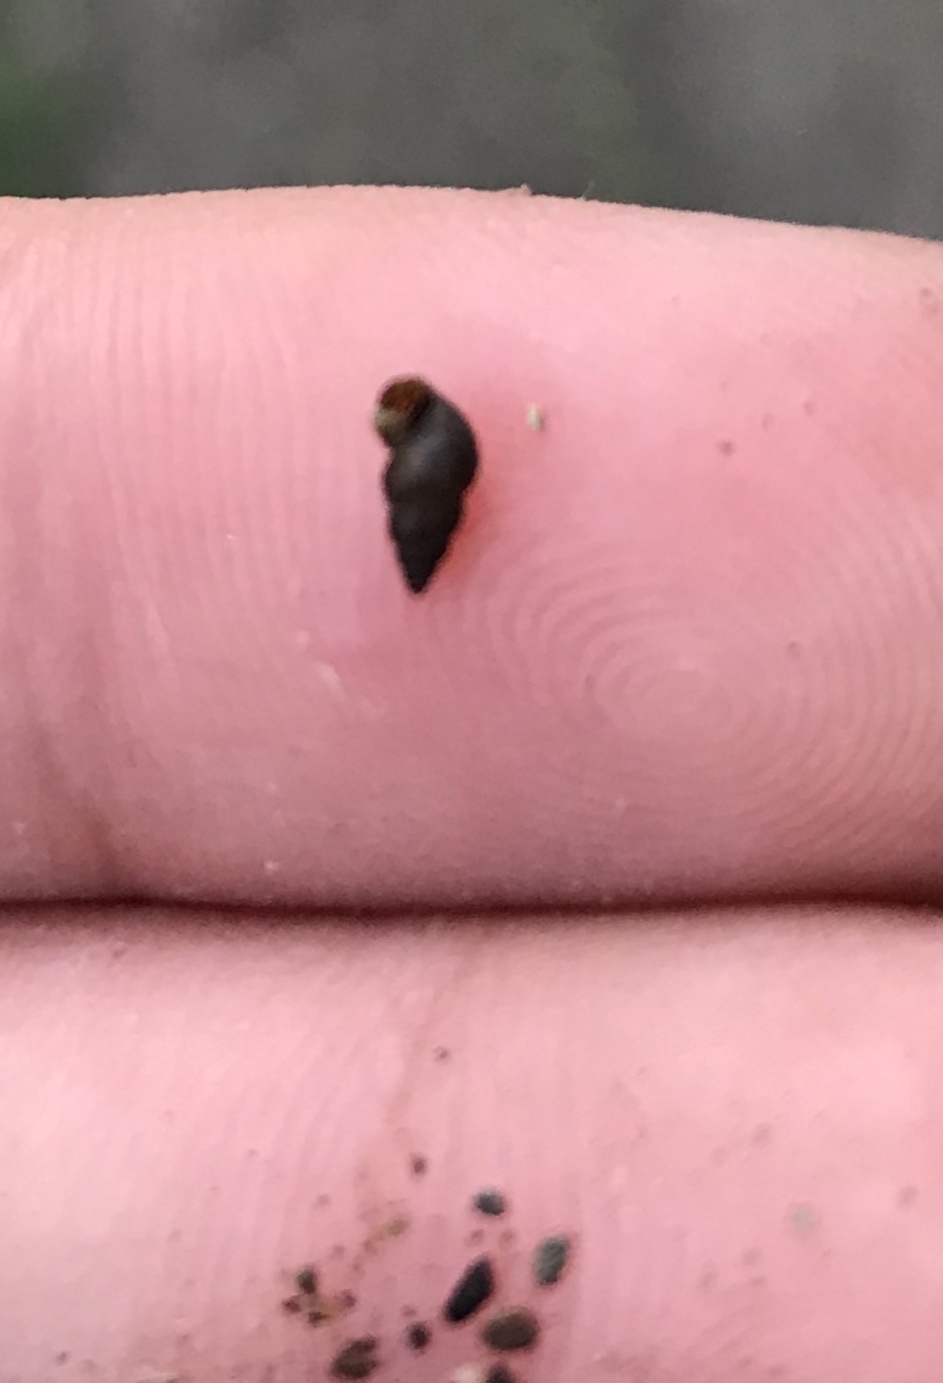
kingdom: Animalia
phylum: Mollusca
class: Gastropoda
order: Littorinimorpha
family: Tateidae
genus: Potamopyrgus
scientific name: Potamopyrgus antipodarum
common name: Jenkins' spire snail
